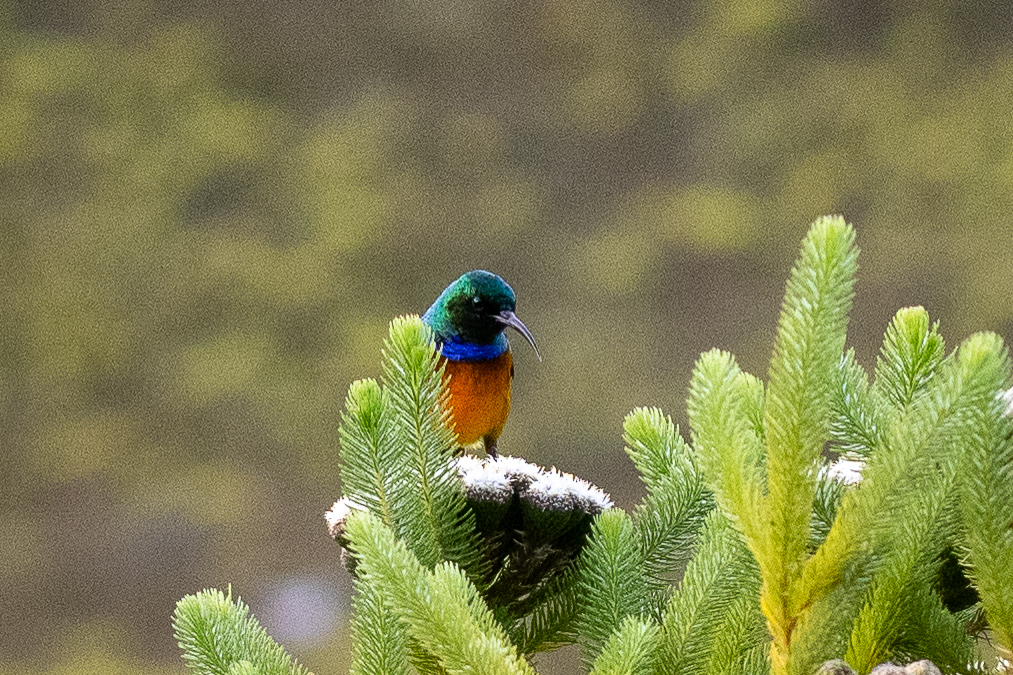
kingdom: Animalia
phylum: Chordata
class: Aves
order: Passeriformes
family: Nectariniidae
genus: Anthobaphes
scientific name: Anthobaphes violacea
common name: Orange-breasted sunbird
